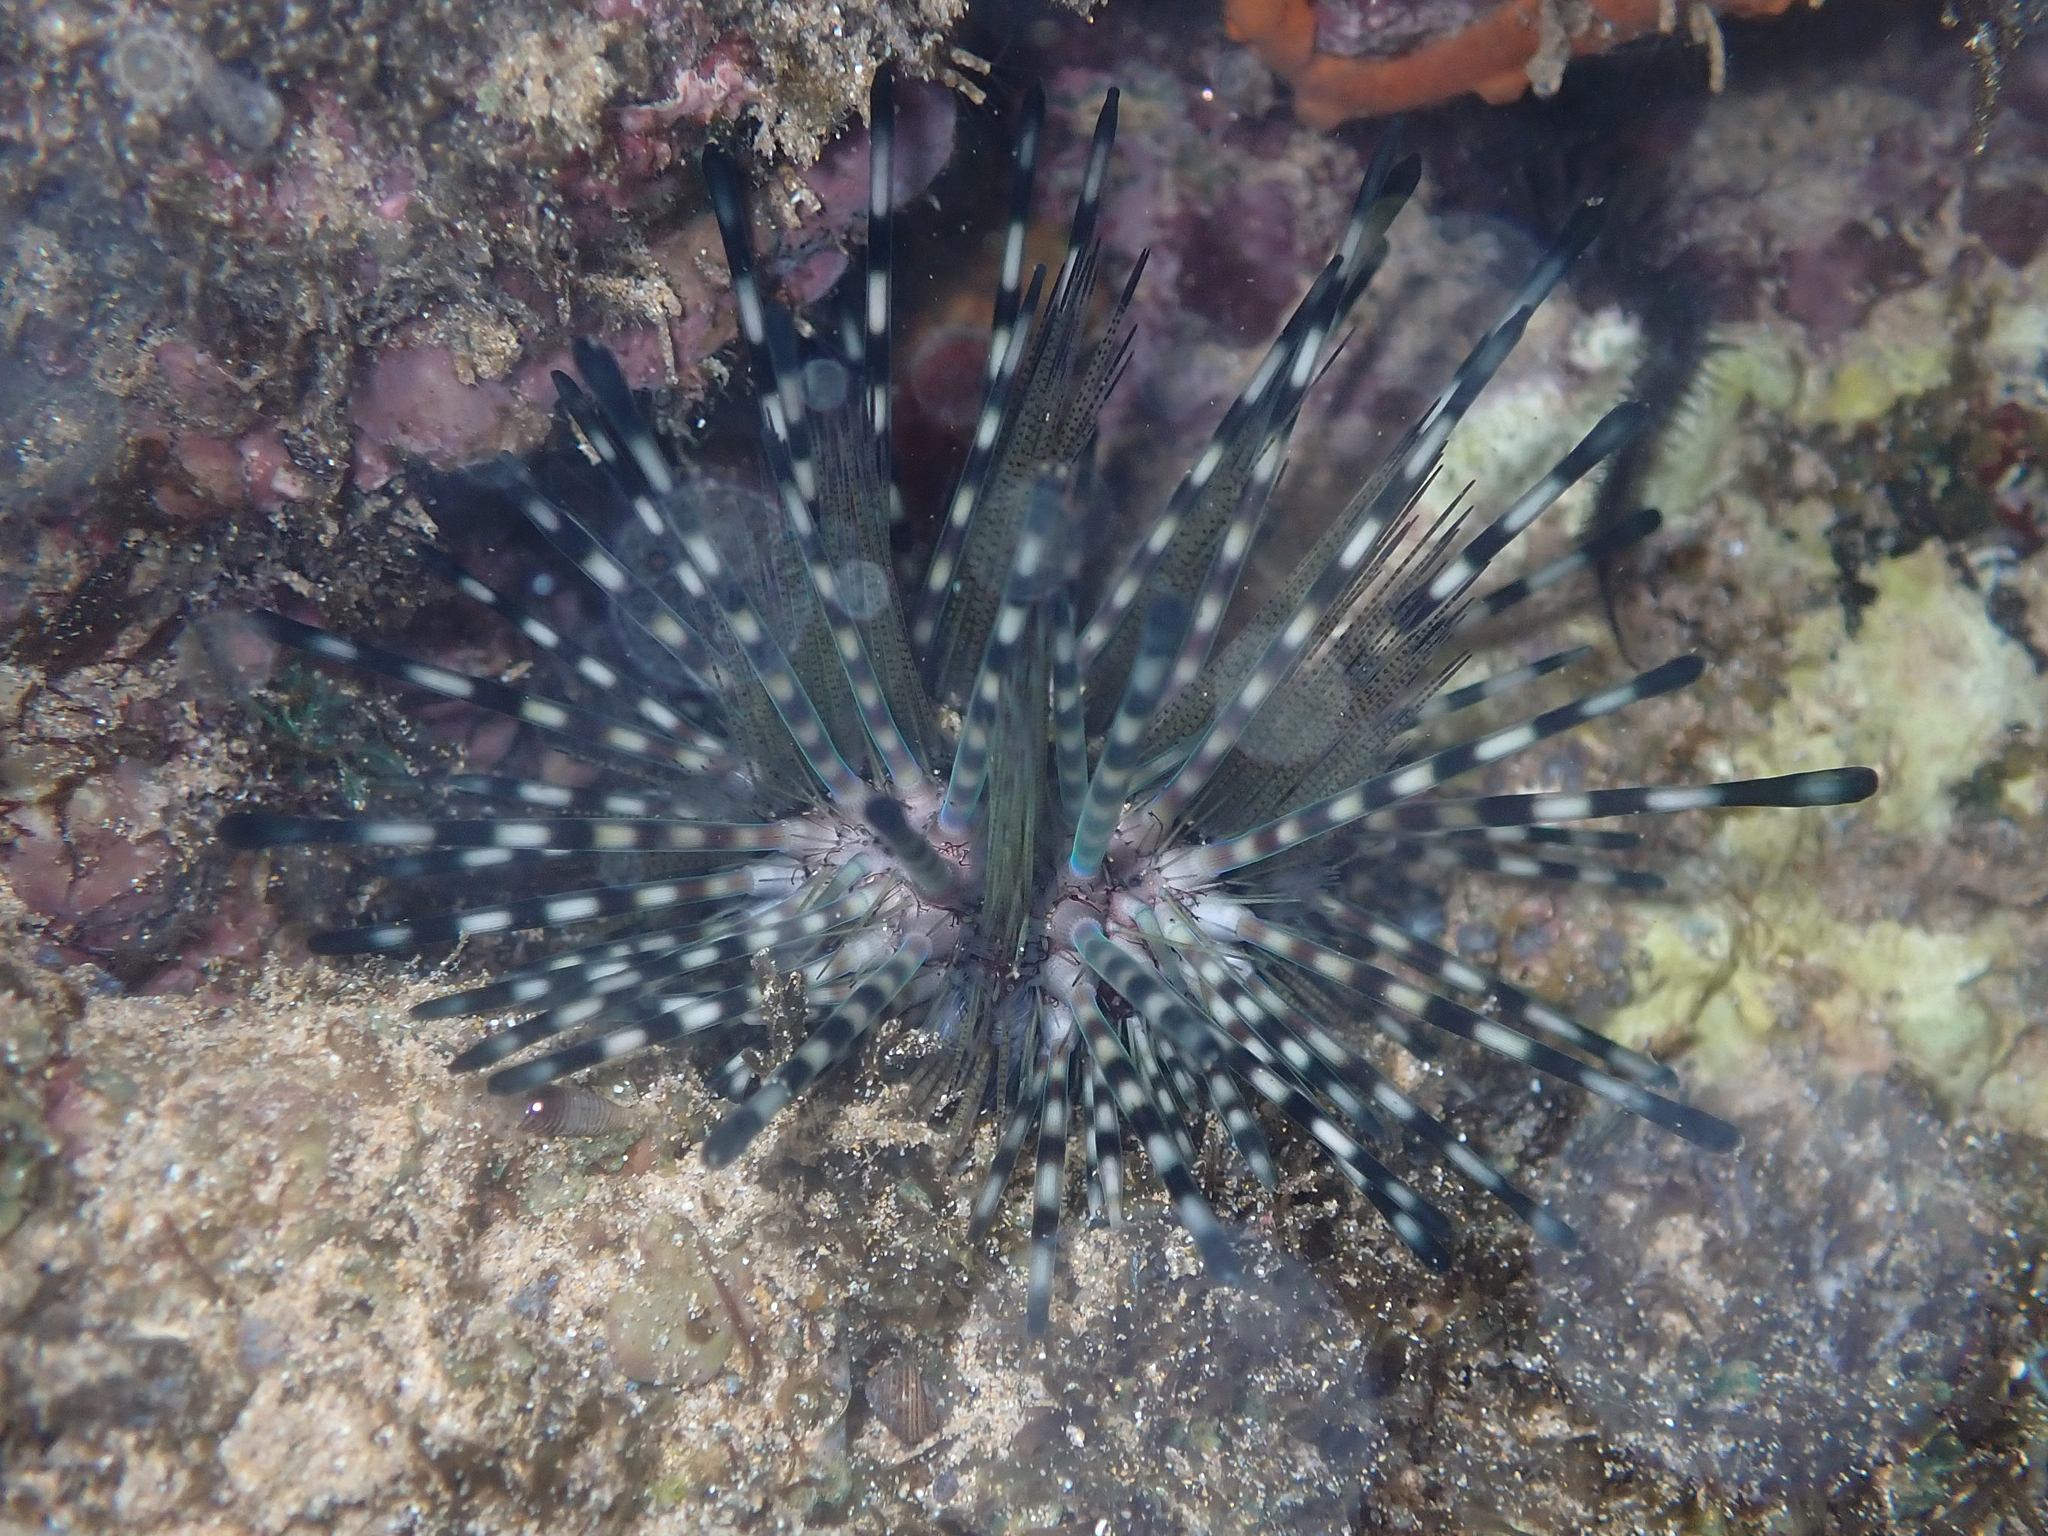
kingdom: Animalia
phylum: Echinodermata
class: Echinoidea
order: Diadematoida
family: Diadematidae
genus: Echinothrix
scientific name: Echinothrix calamaris
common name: Banded sea urchin
